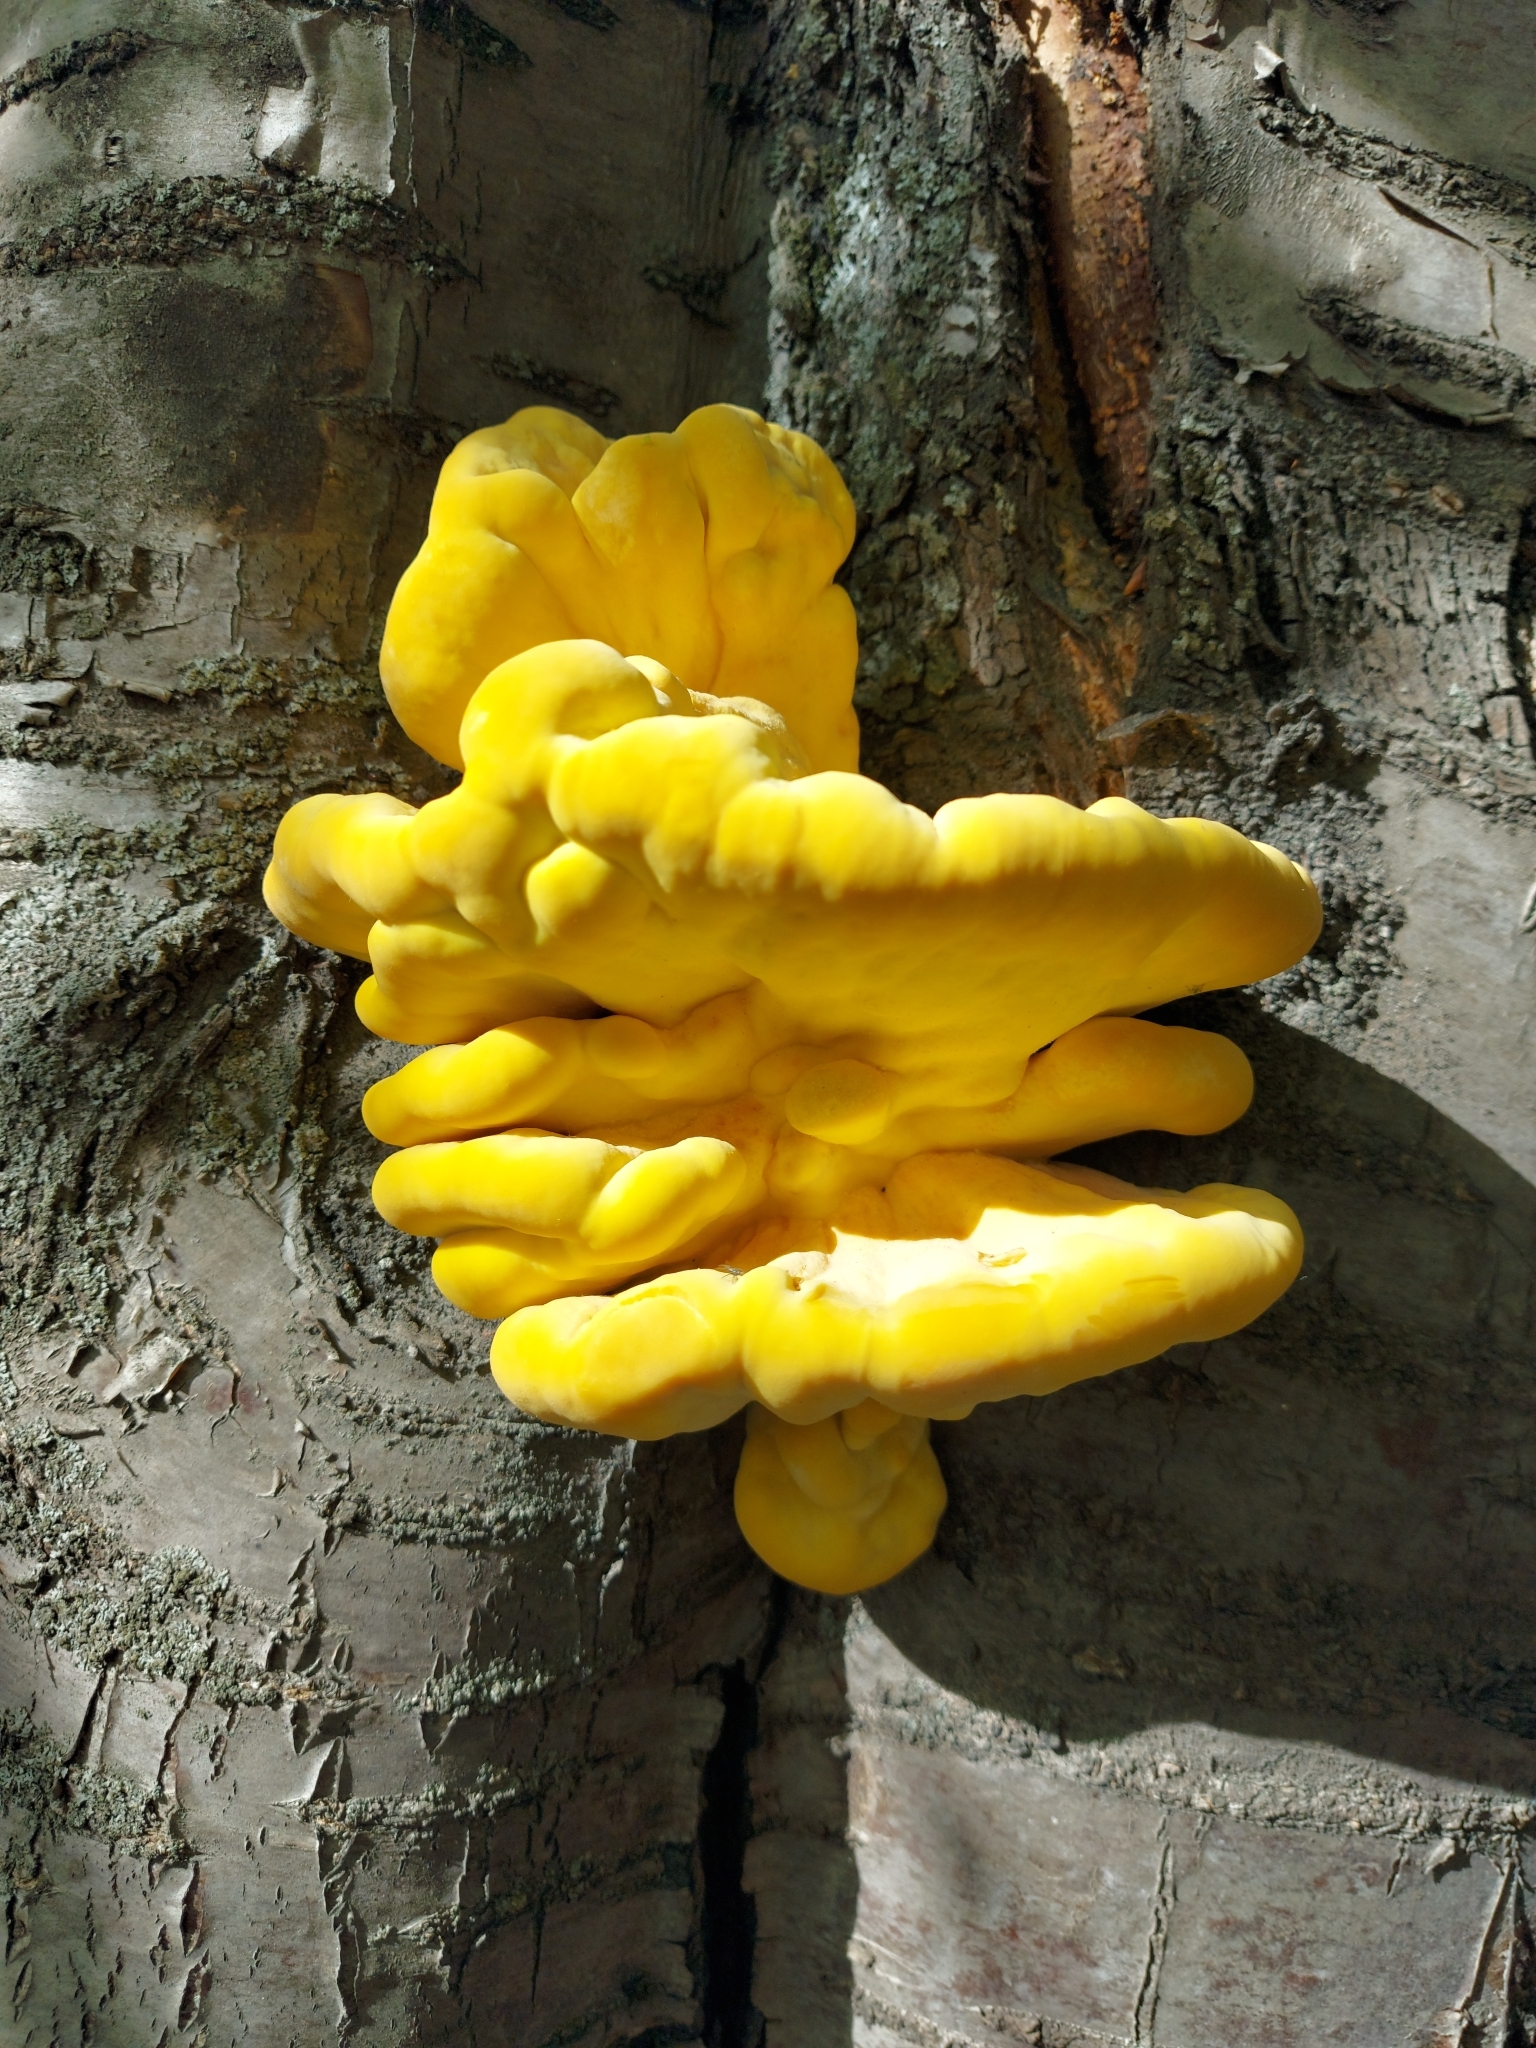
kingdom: Fungi
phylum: Basidiomycota
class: Agaricomycetes
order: Polyporales
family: Laetiporaceae
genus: Laetiporus
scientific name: Laetiporus sulphureus
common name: Chicken of the woods
